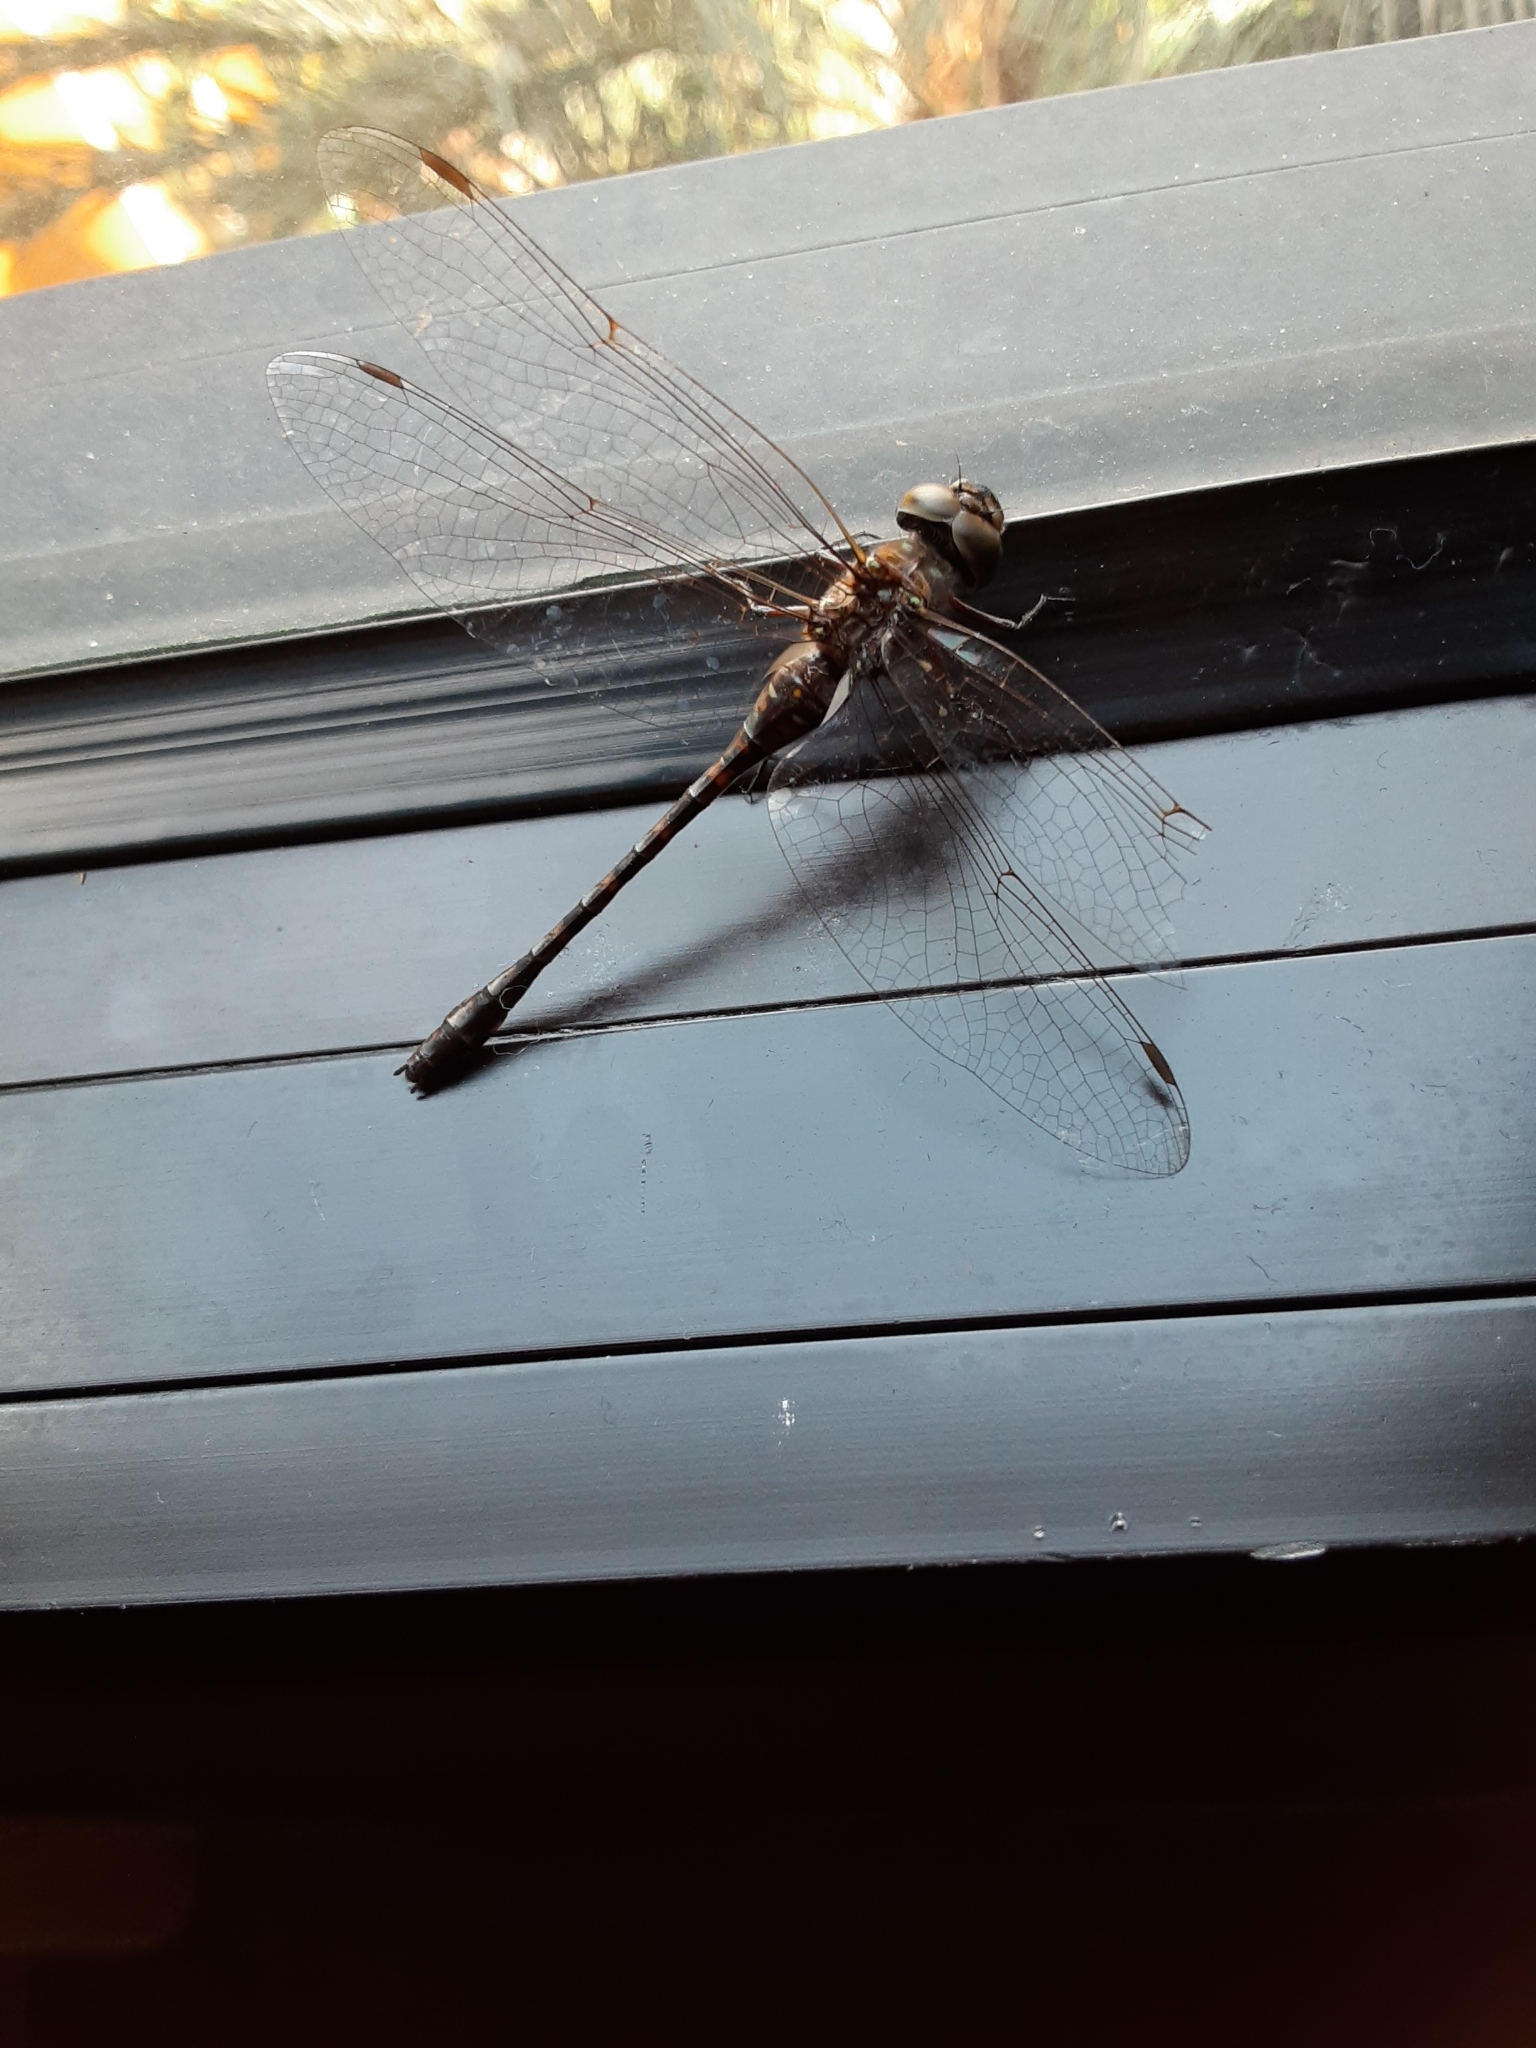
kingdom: Animalia
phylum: Arthropoda
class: Insecta
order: Odonata
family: Aeshnidae
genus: Gomphaeschna
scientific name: Gomphaeschna antilope
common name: Taper-tailed darner
